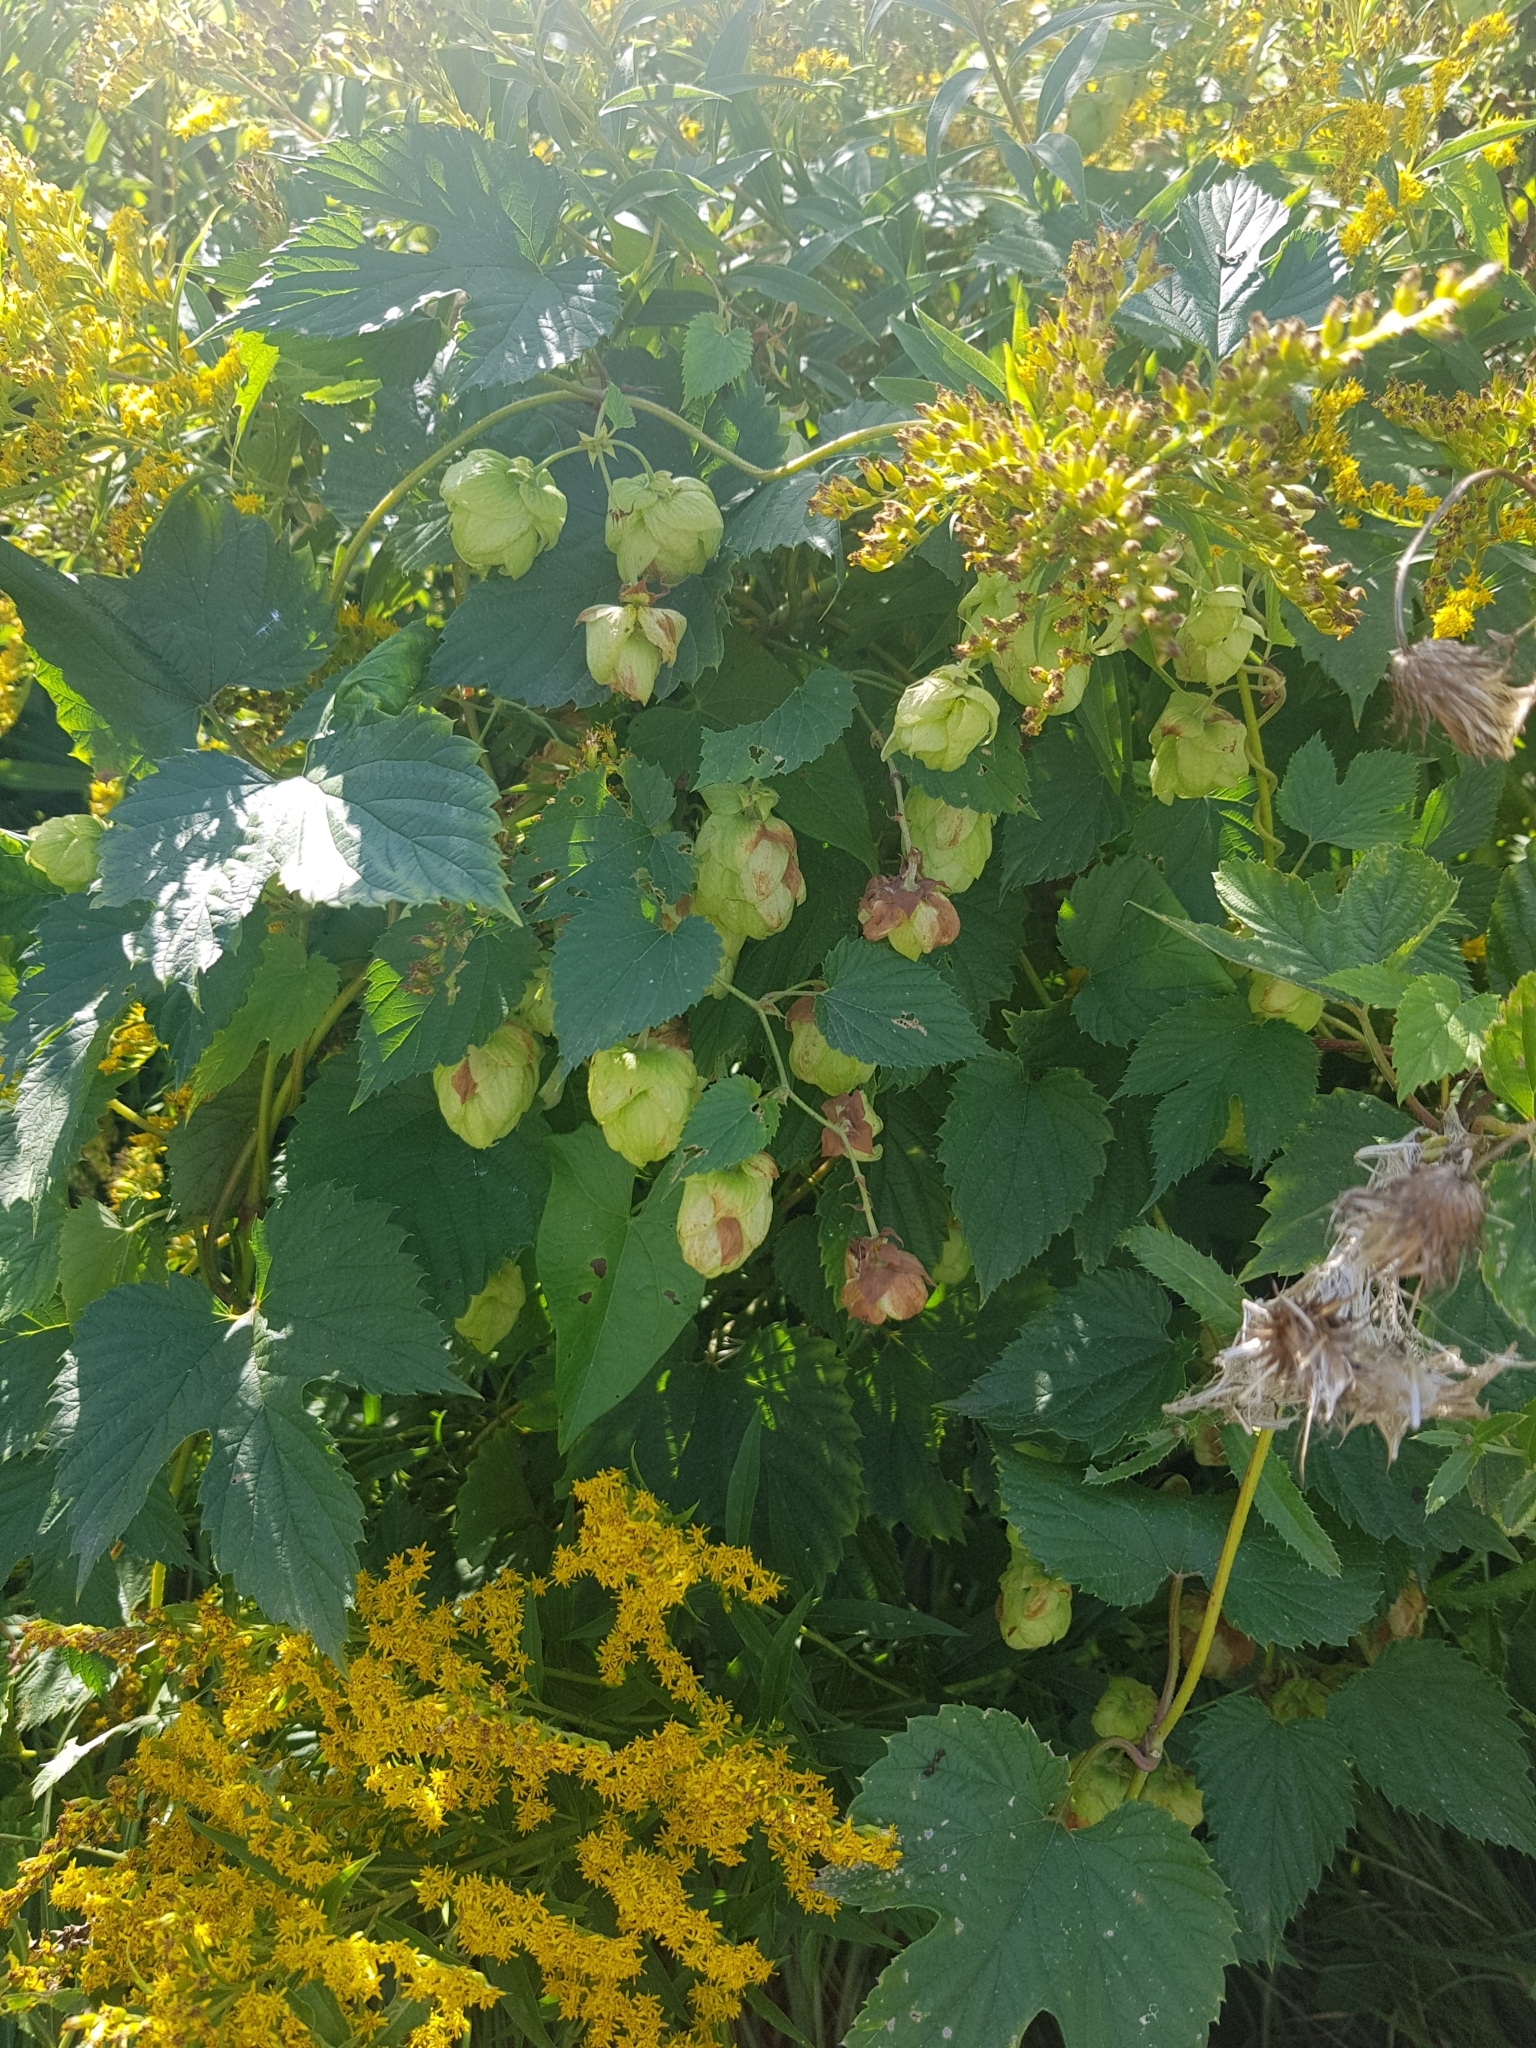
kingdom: Plantae
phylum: Tracheophyta
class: Magnoliopsida
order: Rosales
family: Cannabaceae
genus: Humulus
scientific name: Humulus lupulus
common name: Hop
